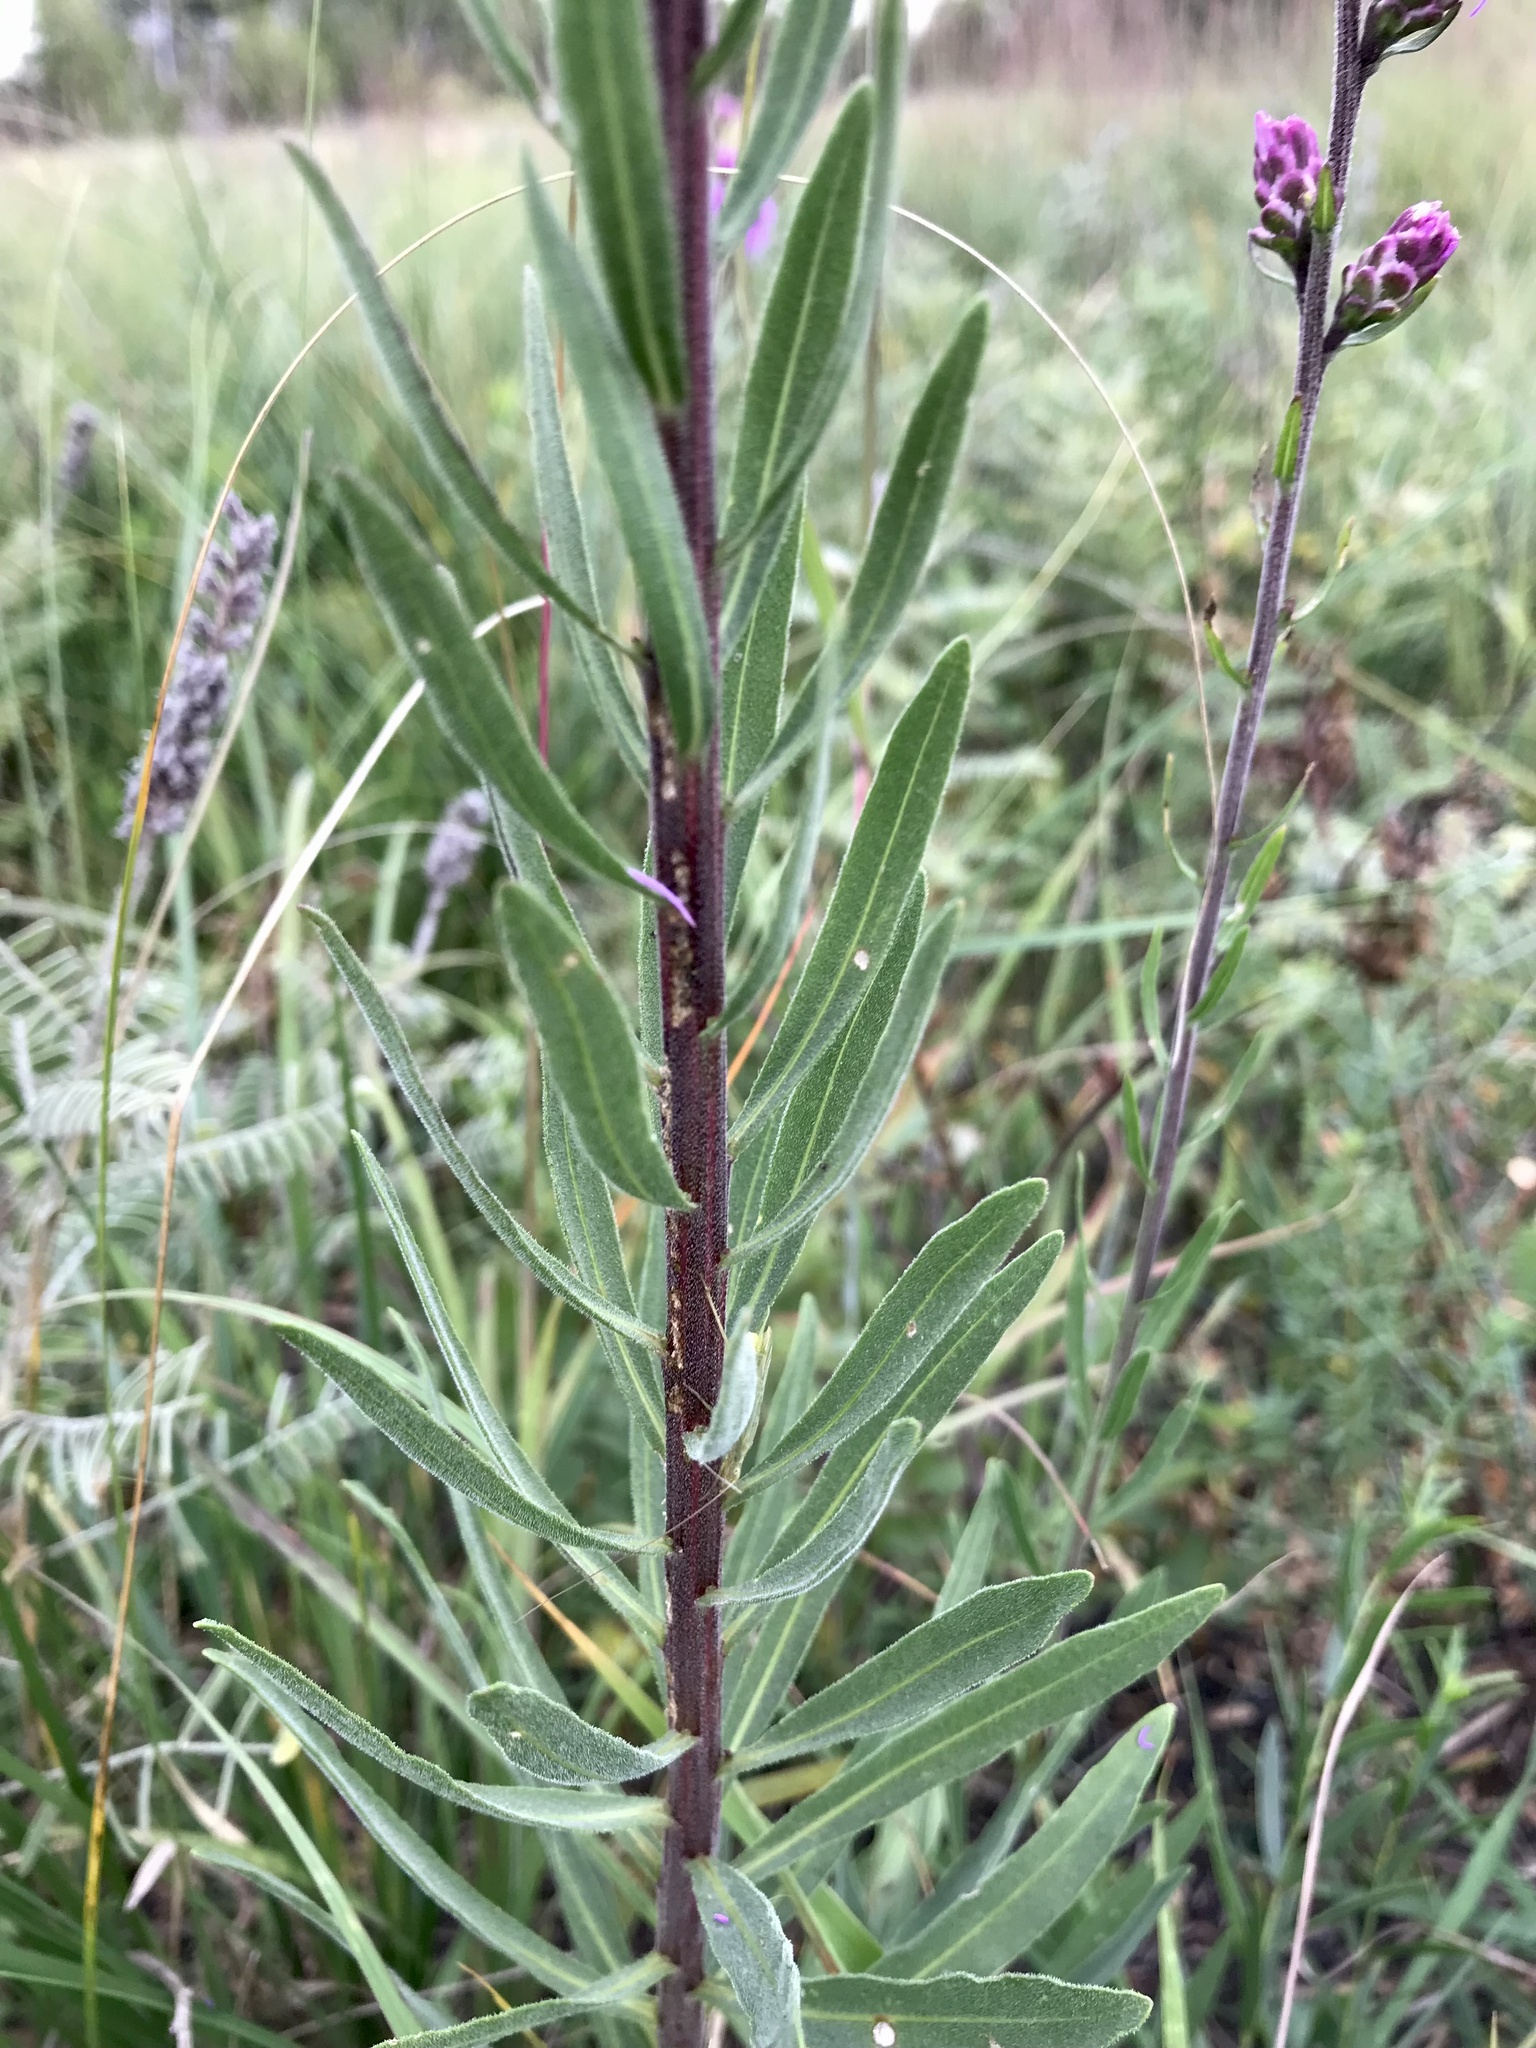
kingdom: Plantae
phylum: Tracheophyta
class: Magnoliopsida
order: Asterales
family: Asteraceae
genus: Liatris
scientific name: Liatris aspera
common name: Lacerate blazing-star
